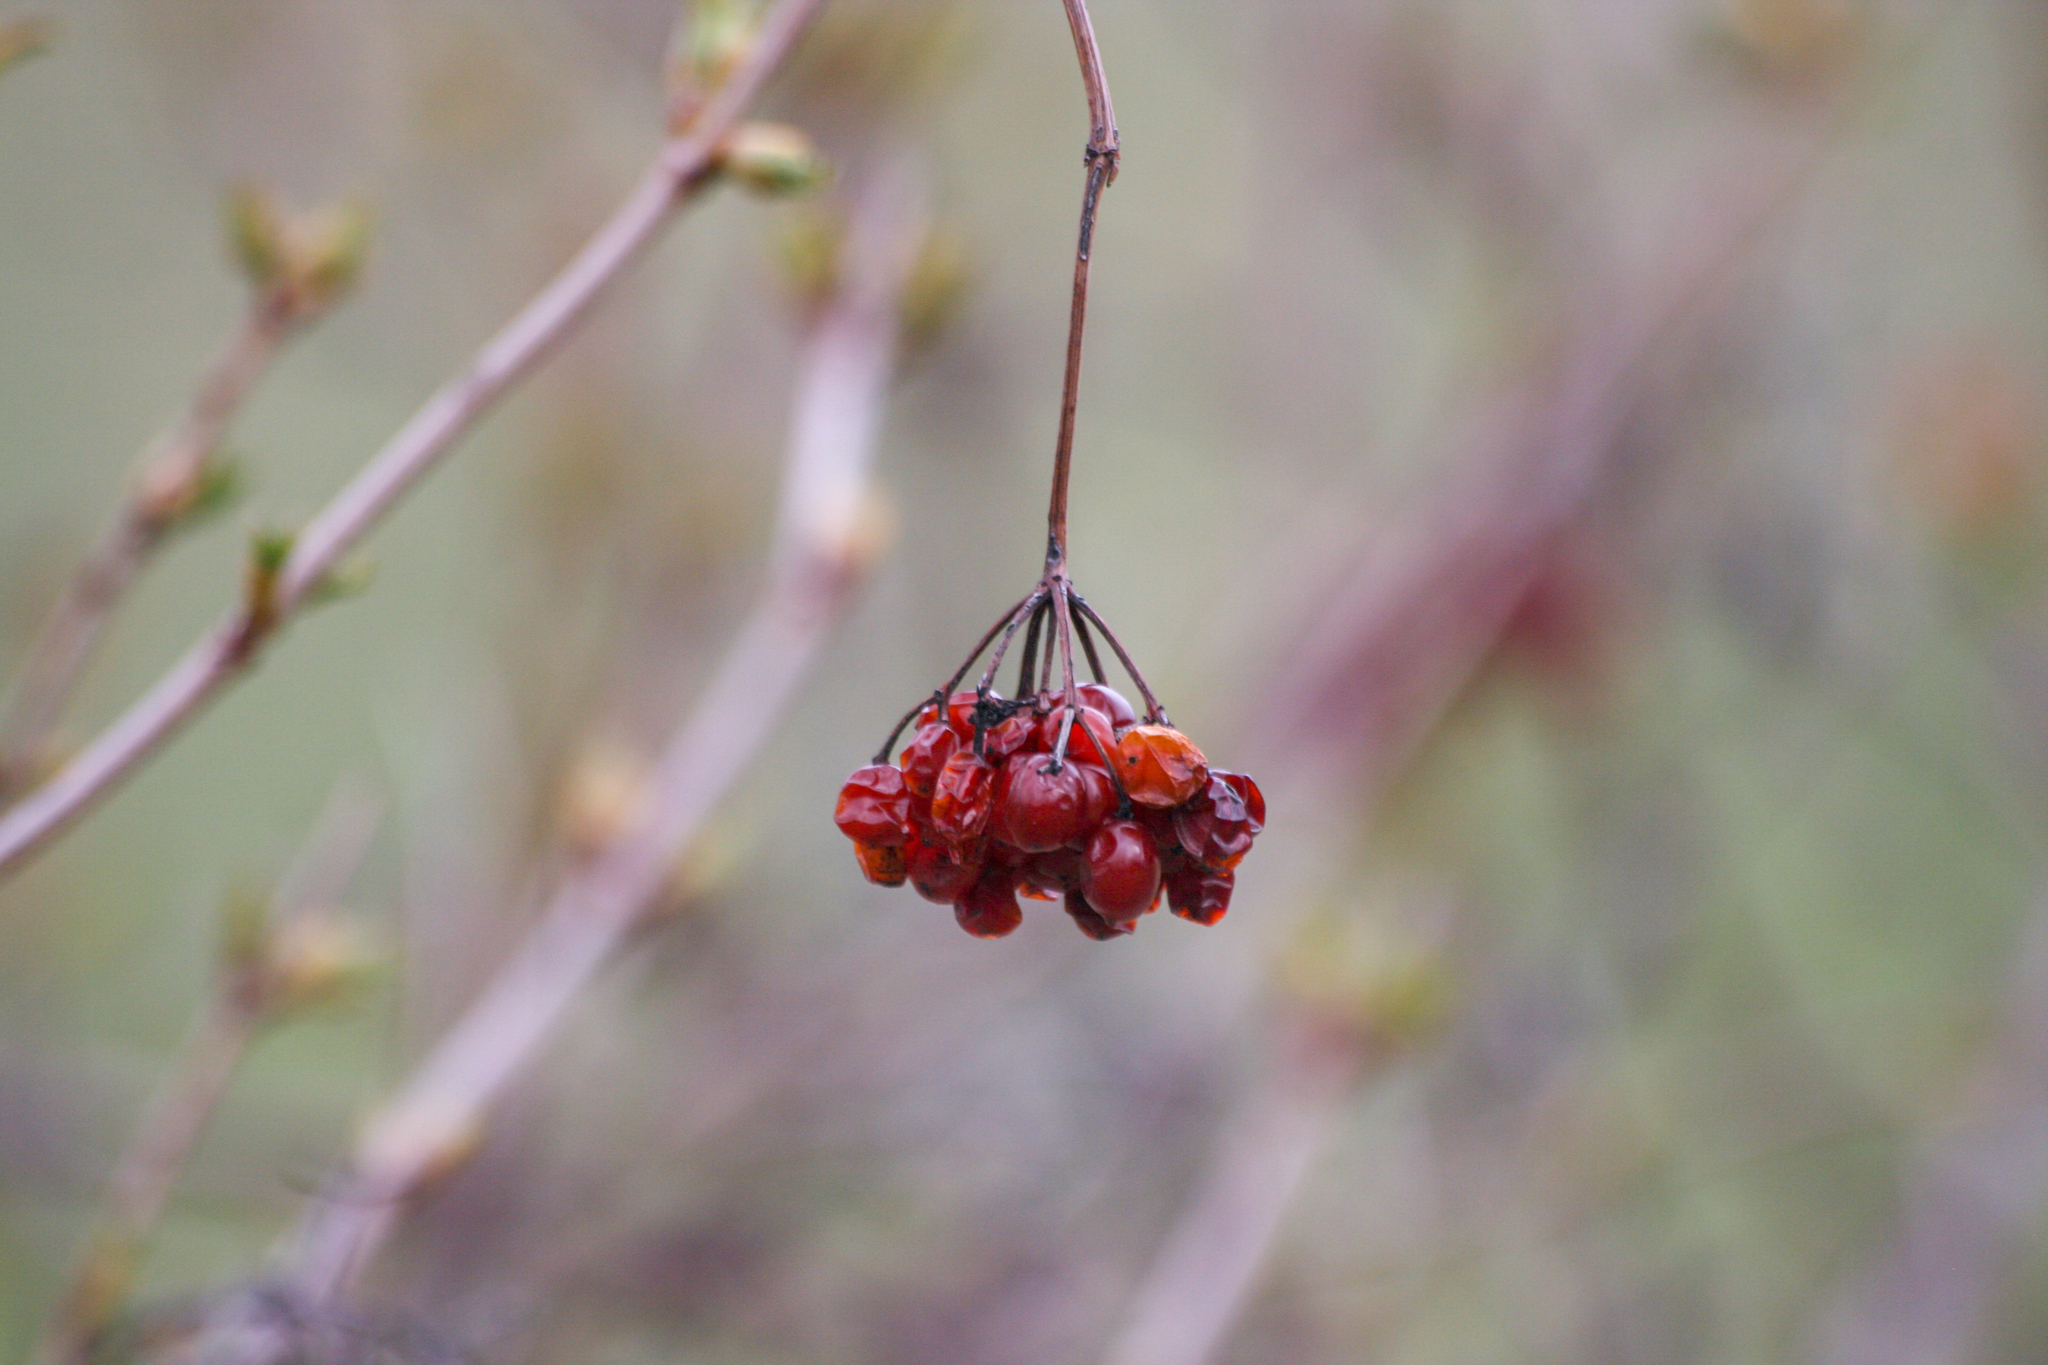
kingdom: Plantae
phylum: Tracheophyta
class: Magnoliopsida
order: Dipsacales
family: Viburnaceae
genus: Viburnum
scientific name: Viburnum opulus
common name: Guelder-rose
